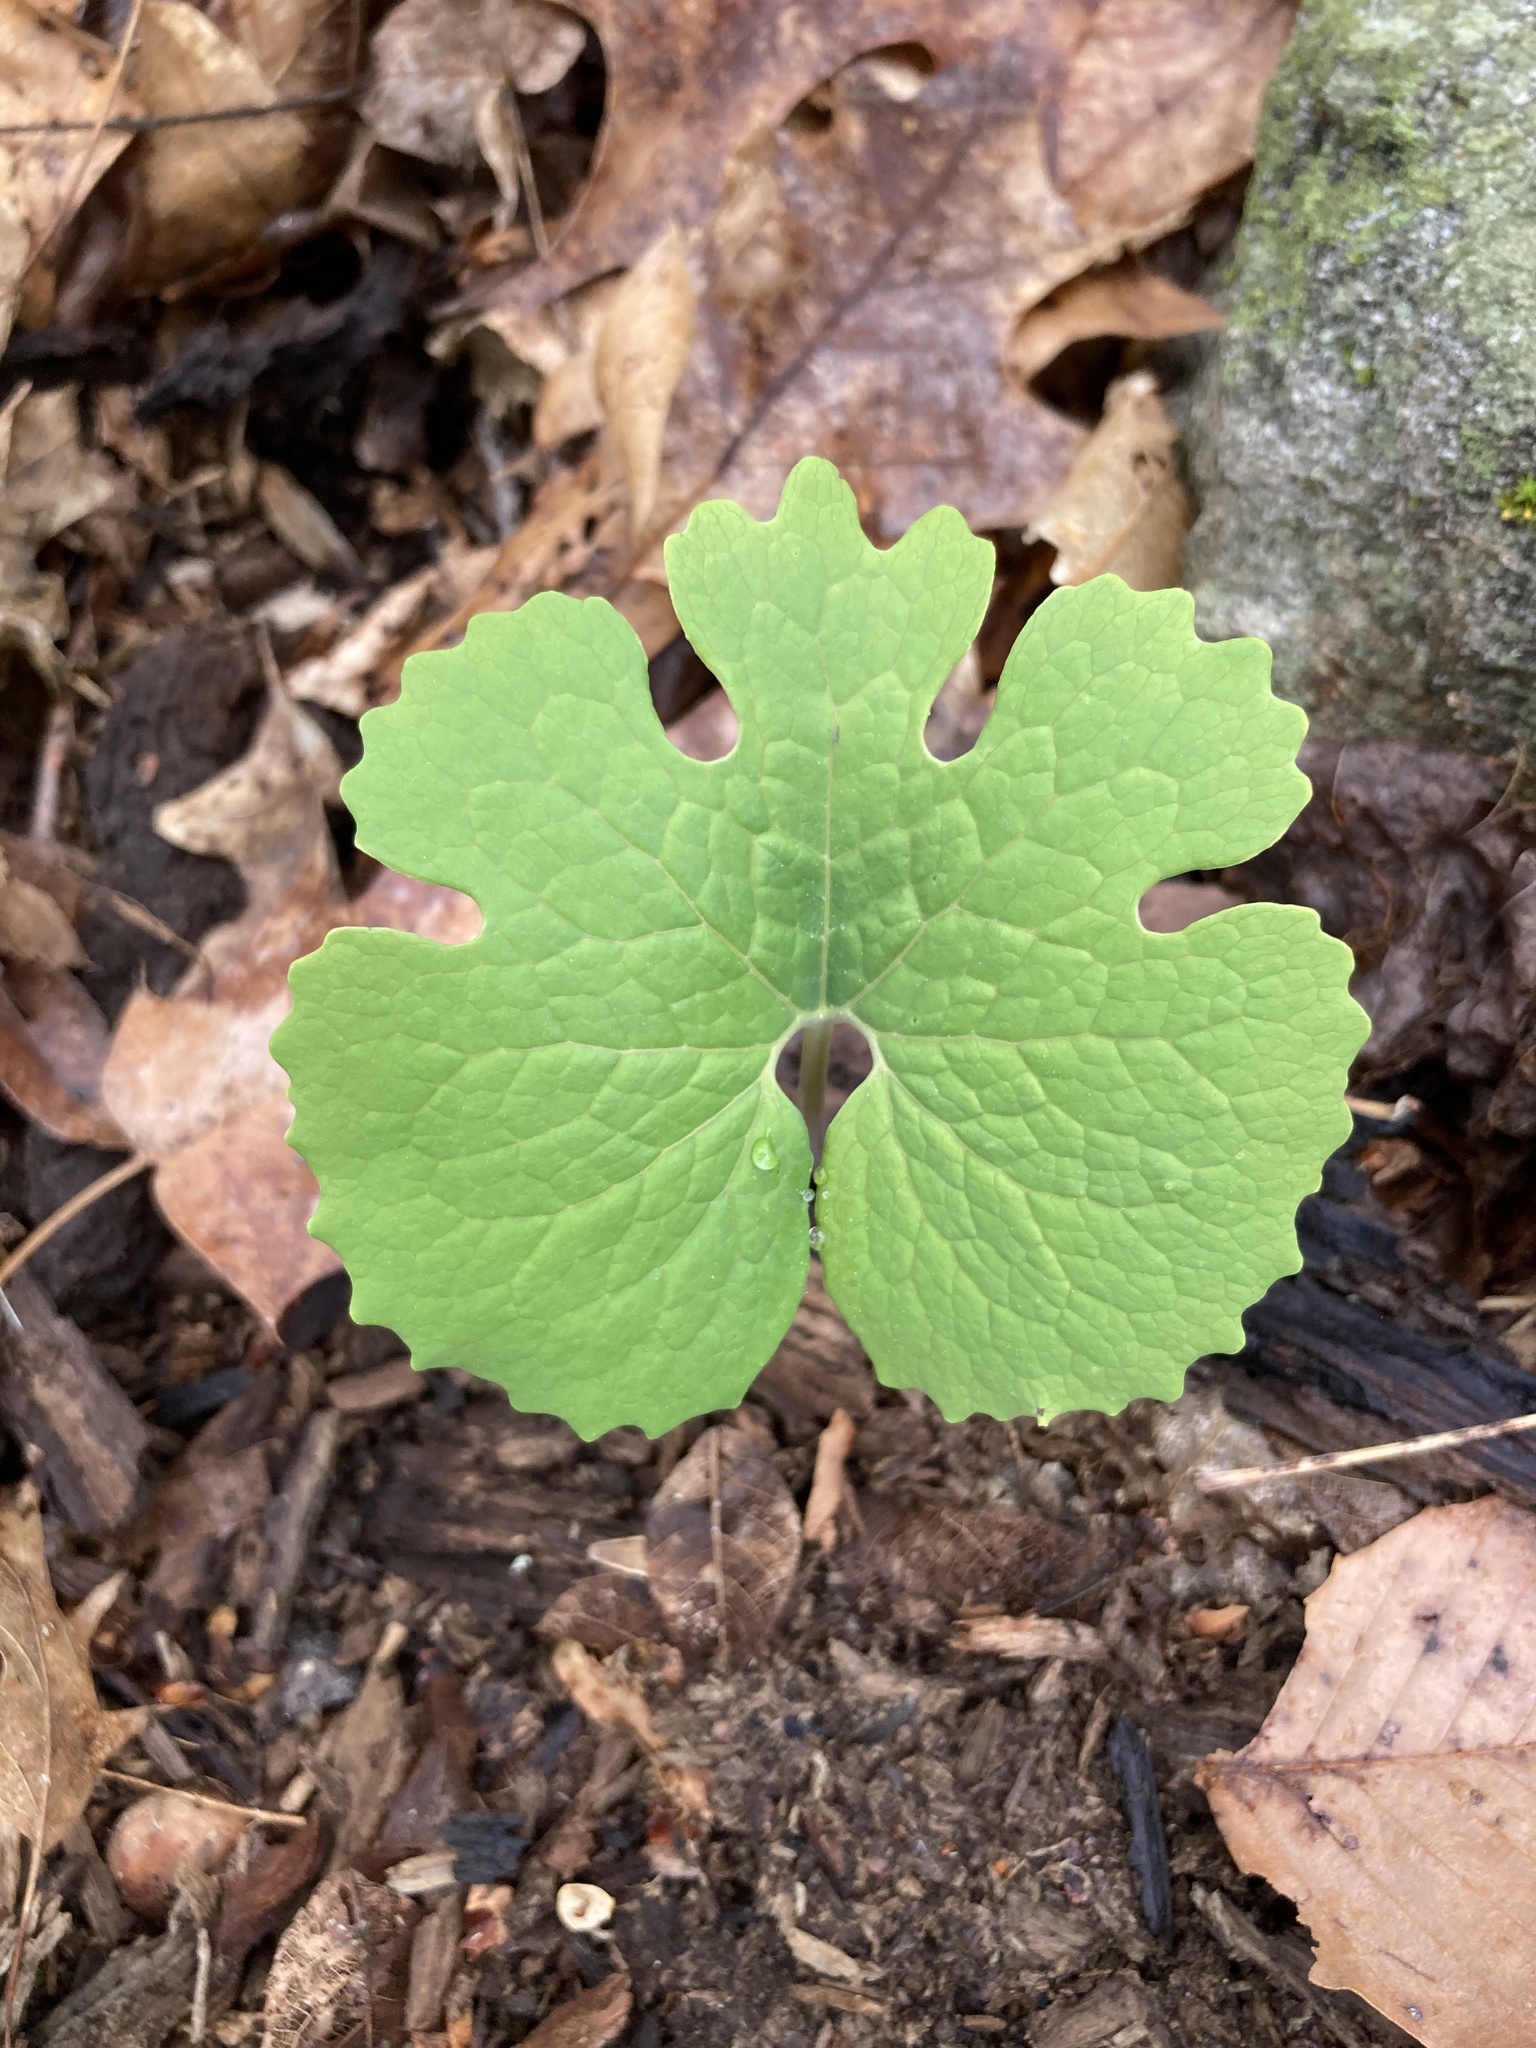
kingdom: Plantae
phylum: Tracheophyta
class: Magnoliopsida
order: Ranunculales
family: Papaveraceae
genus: Sanguinaria
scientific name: Sanguinaria canadensis
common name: Bloodroot
